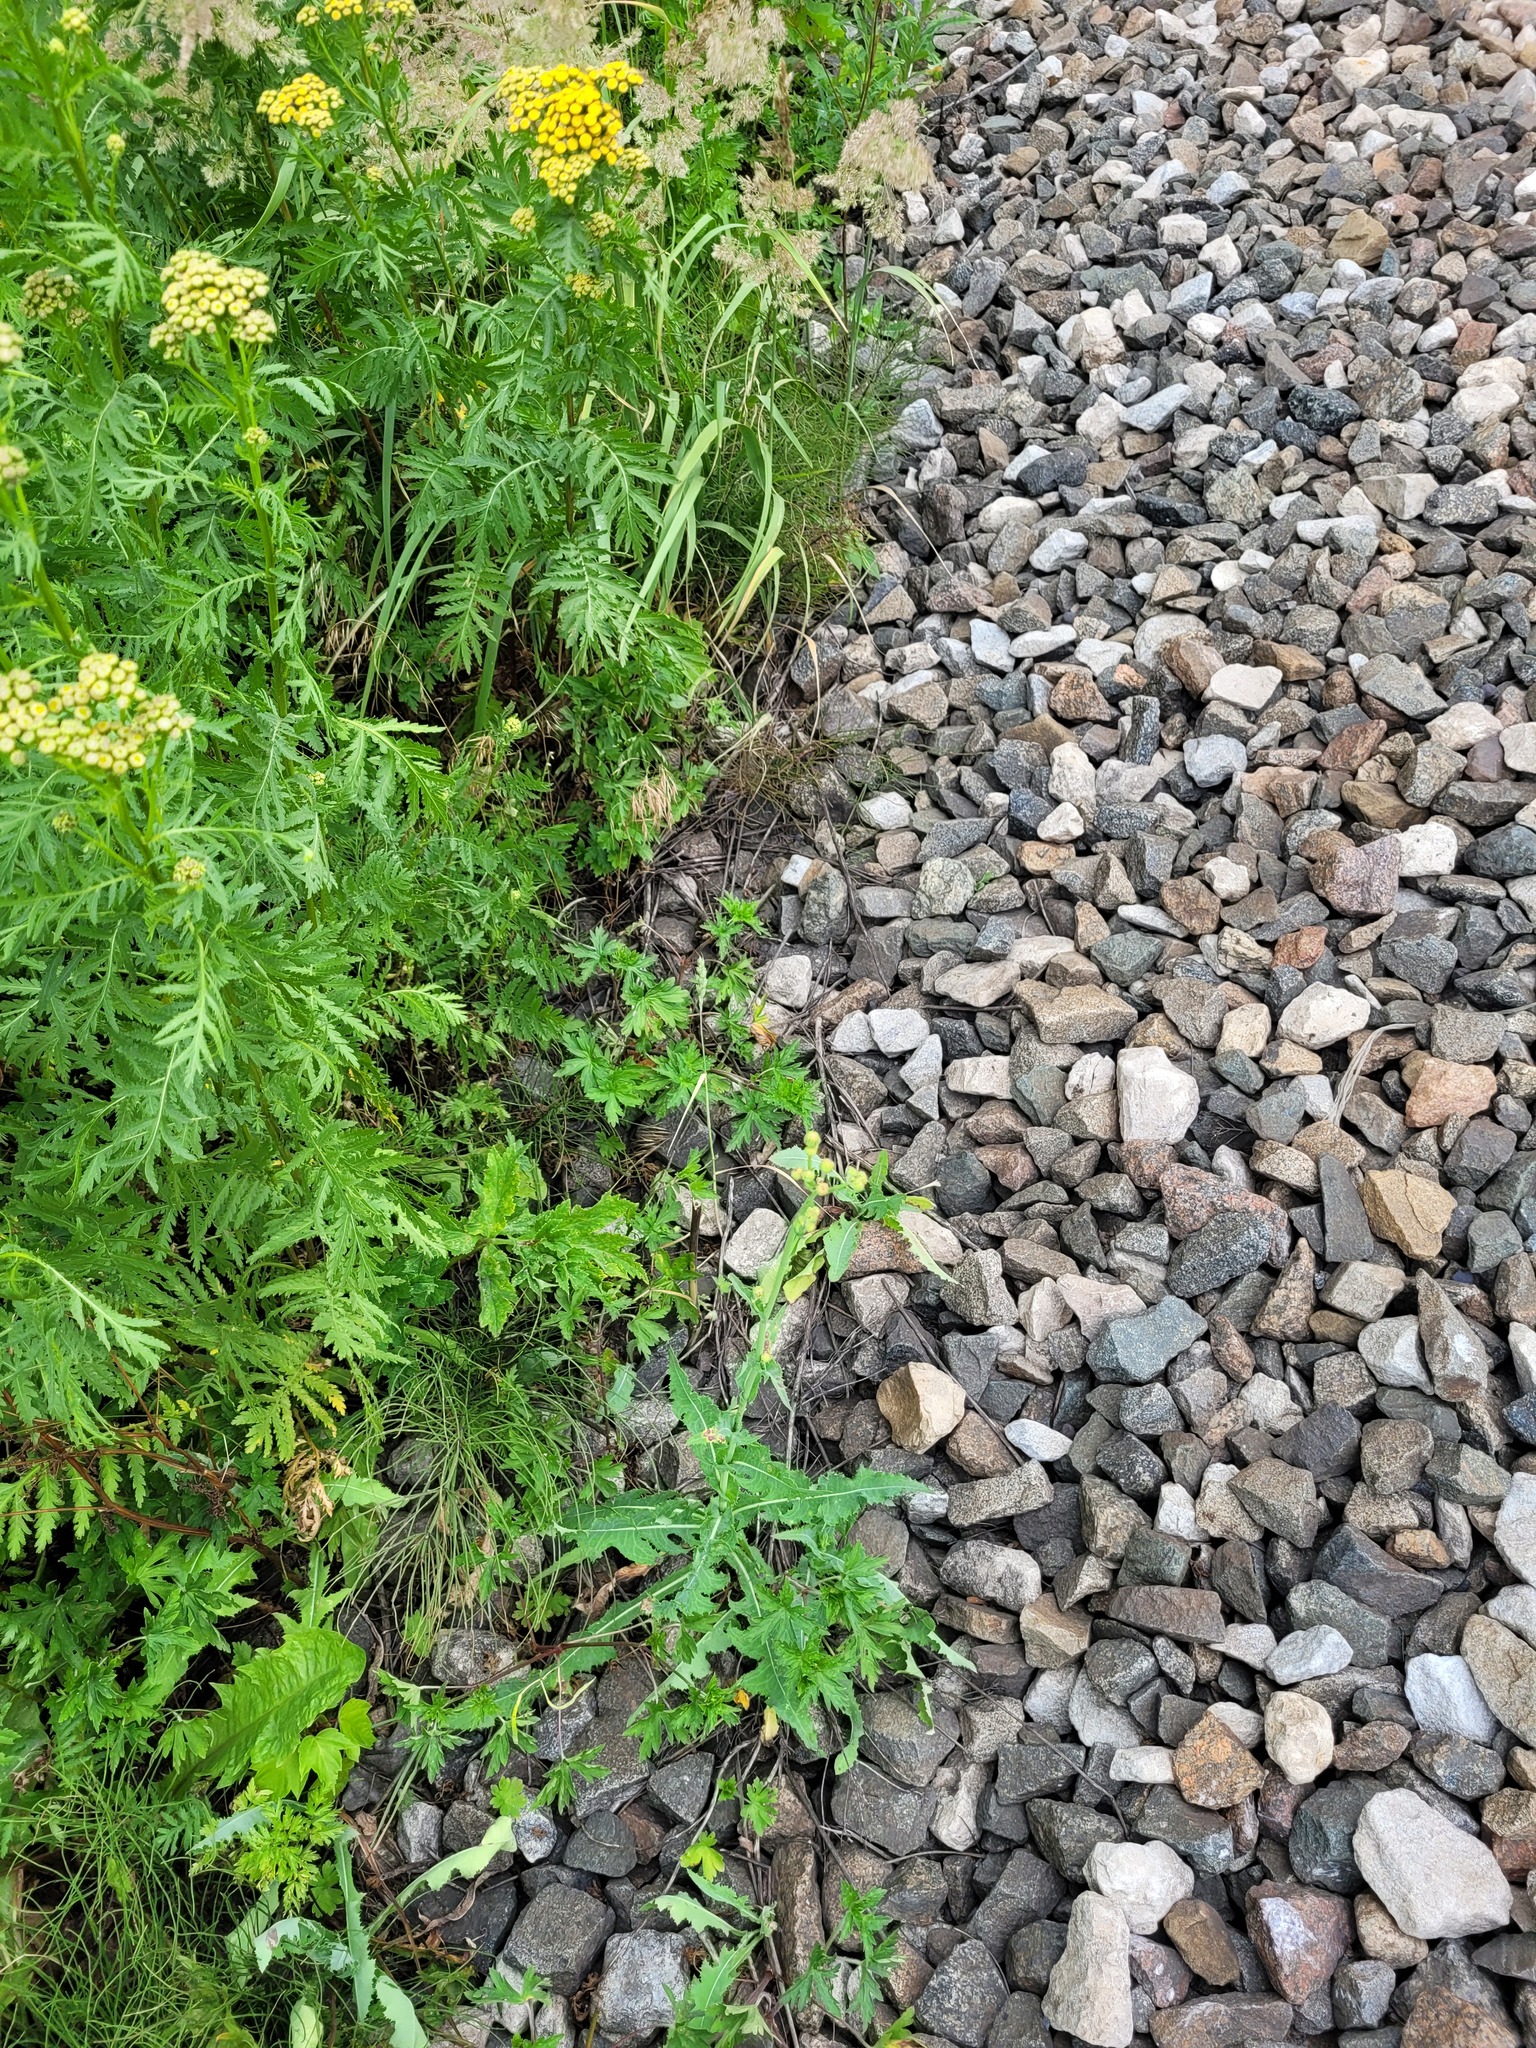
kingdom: Plantae
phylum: Tracheophyta
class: Magnoliopsida
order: Asterales
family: Asteraceae
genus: Sonchus
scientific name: Sonchus arvensis
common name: Perennial sow-thistle
